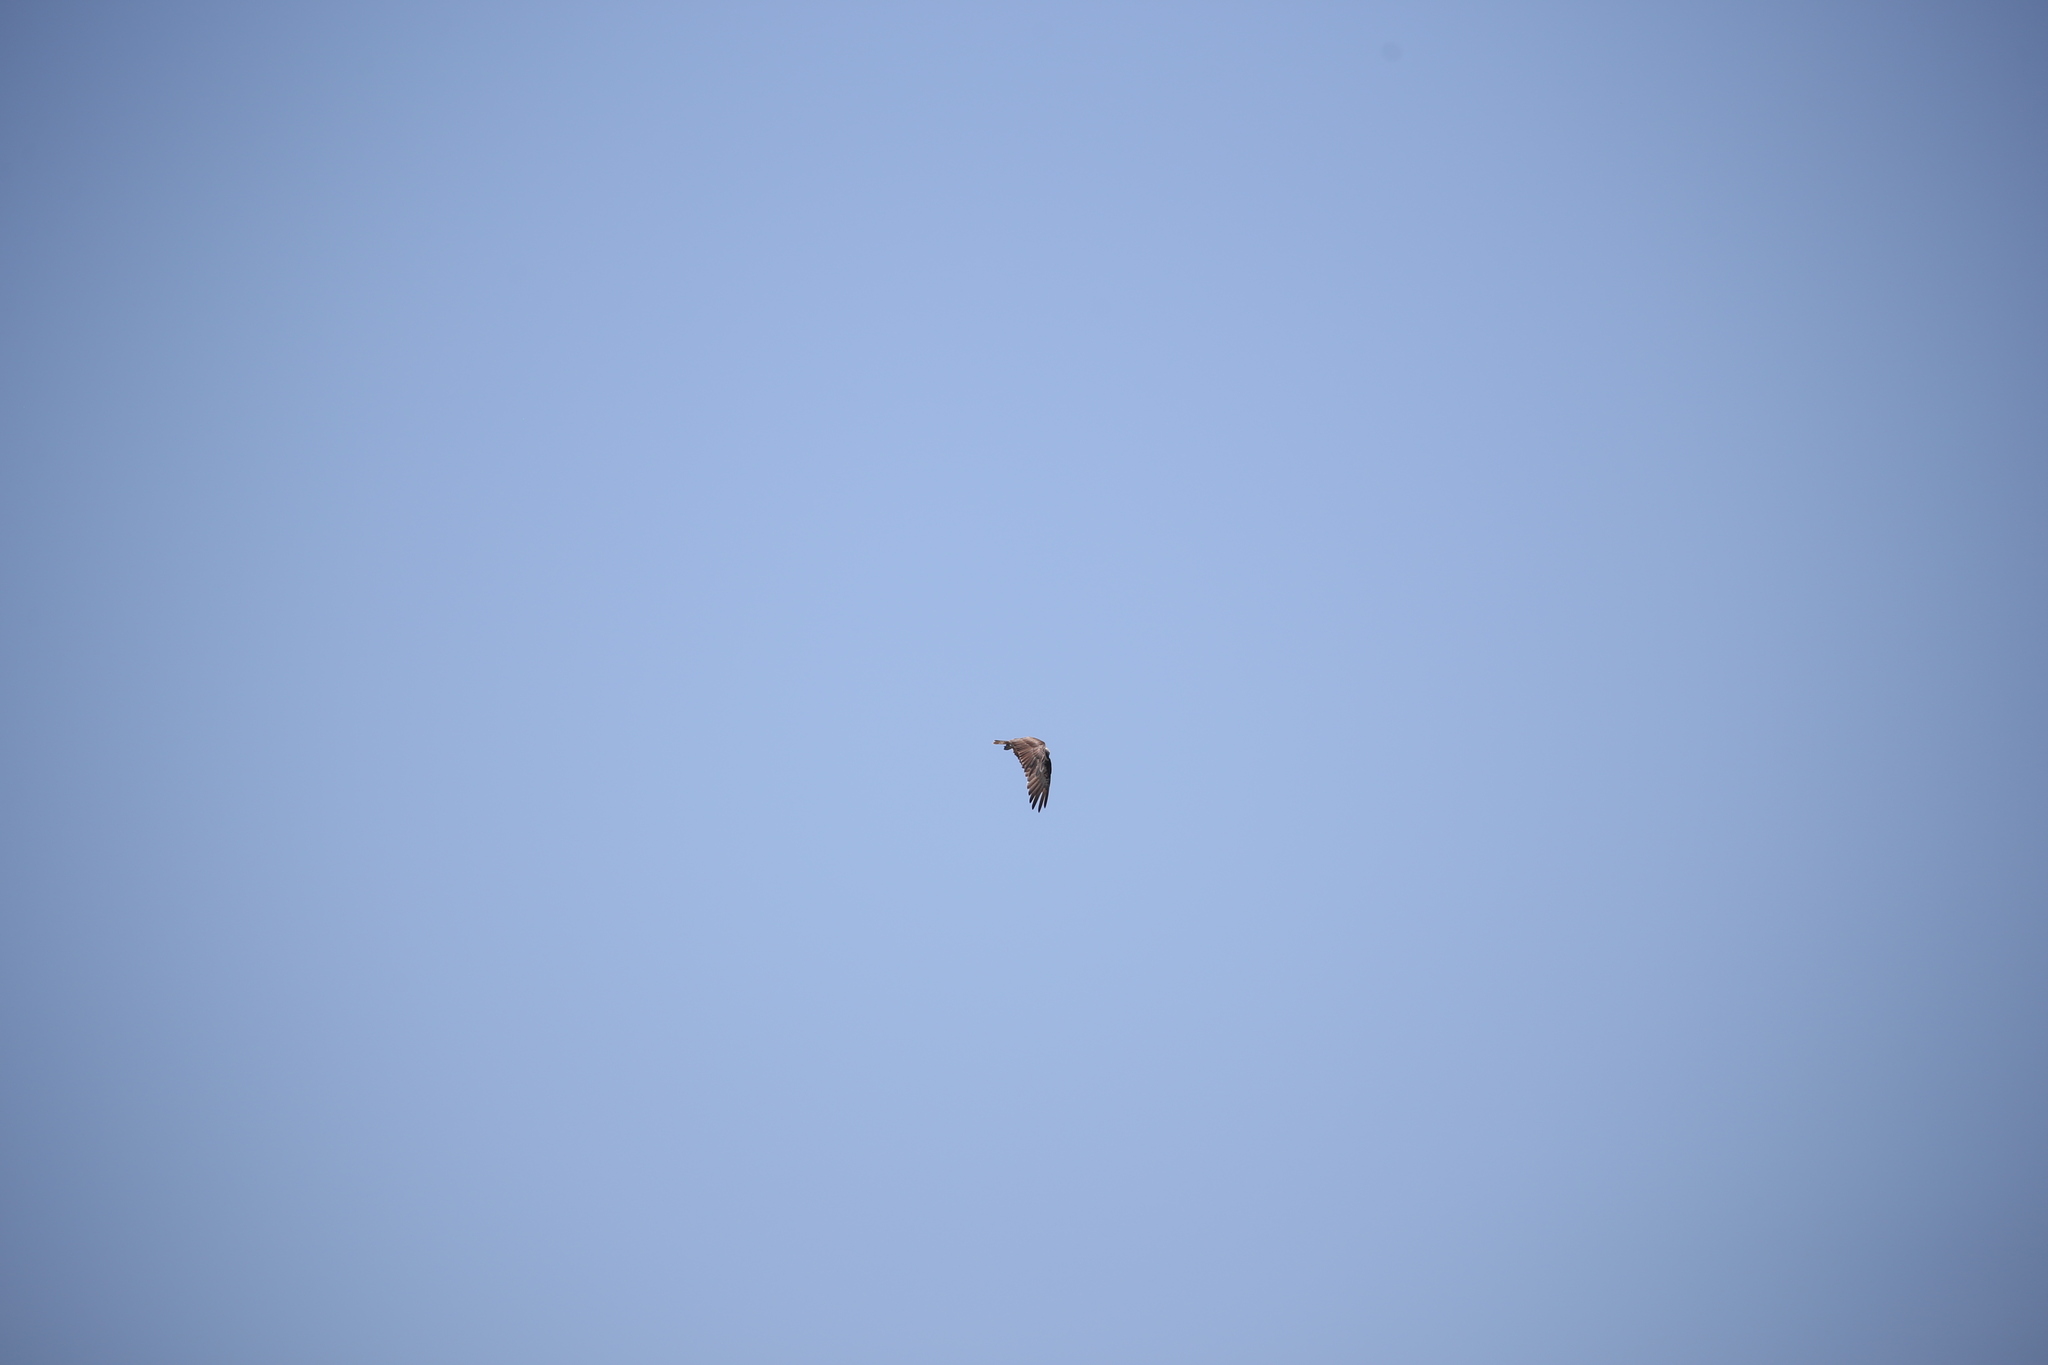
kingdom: Animalia
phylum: Chordata
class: Aves
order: Accipitriformes
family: Pandionidae
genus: Pandion
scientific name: Pandion haliaetus
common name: Osprey
